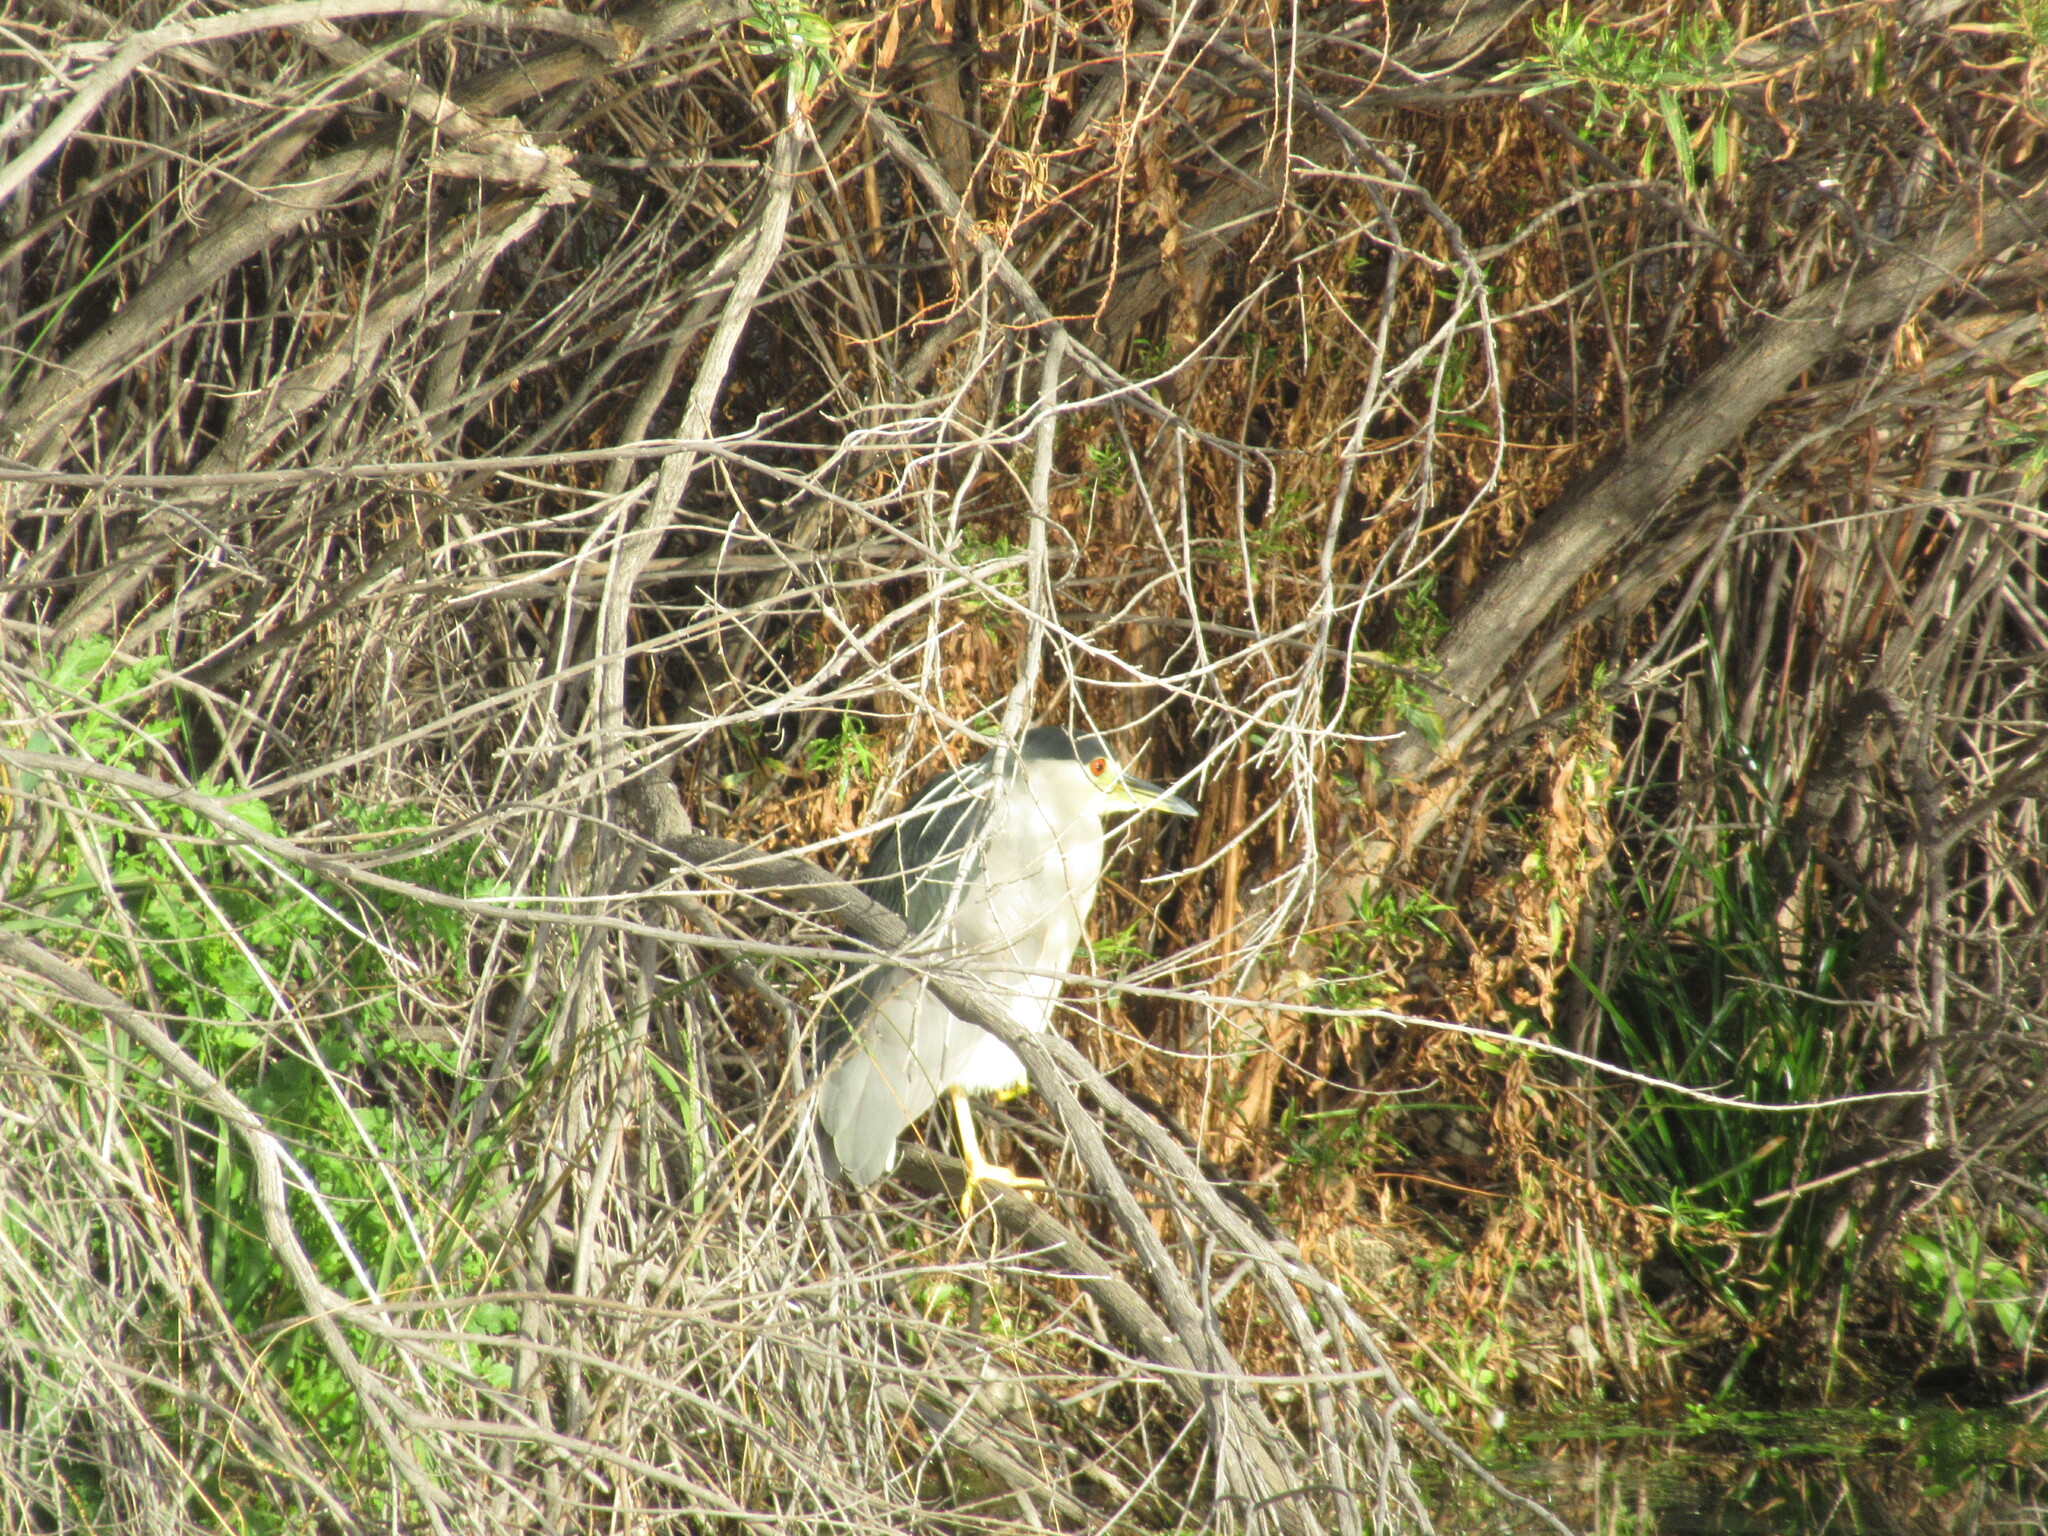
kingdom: Animalia
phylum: Chordata
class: Aves
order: Pelecaniformes
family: Ardeidae
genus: Nycticorax
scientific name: Nycticorax nycticorax
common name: Black-crowned night heron
